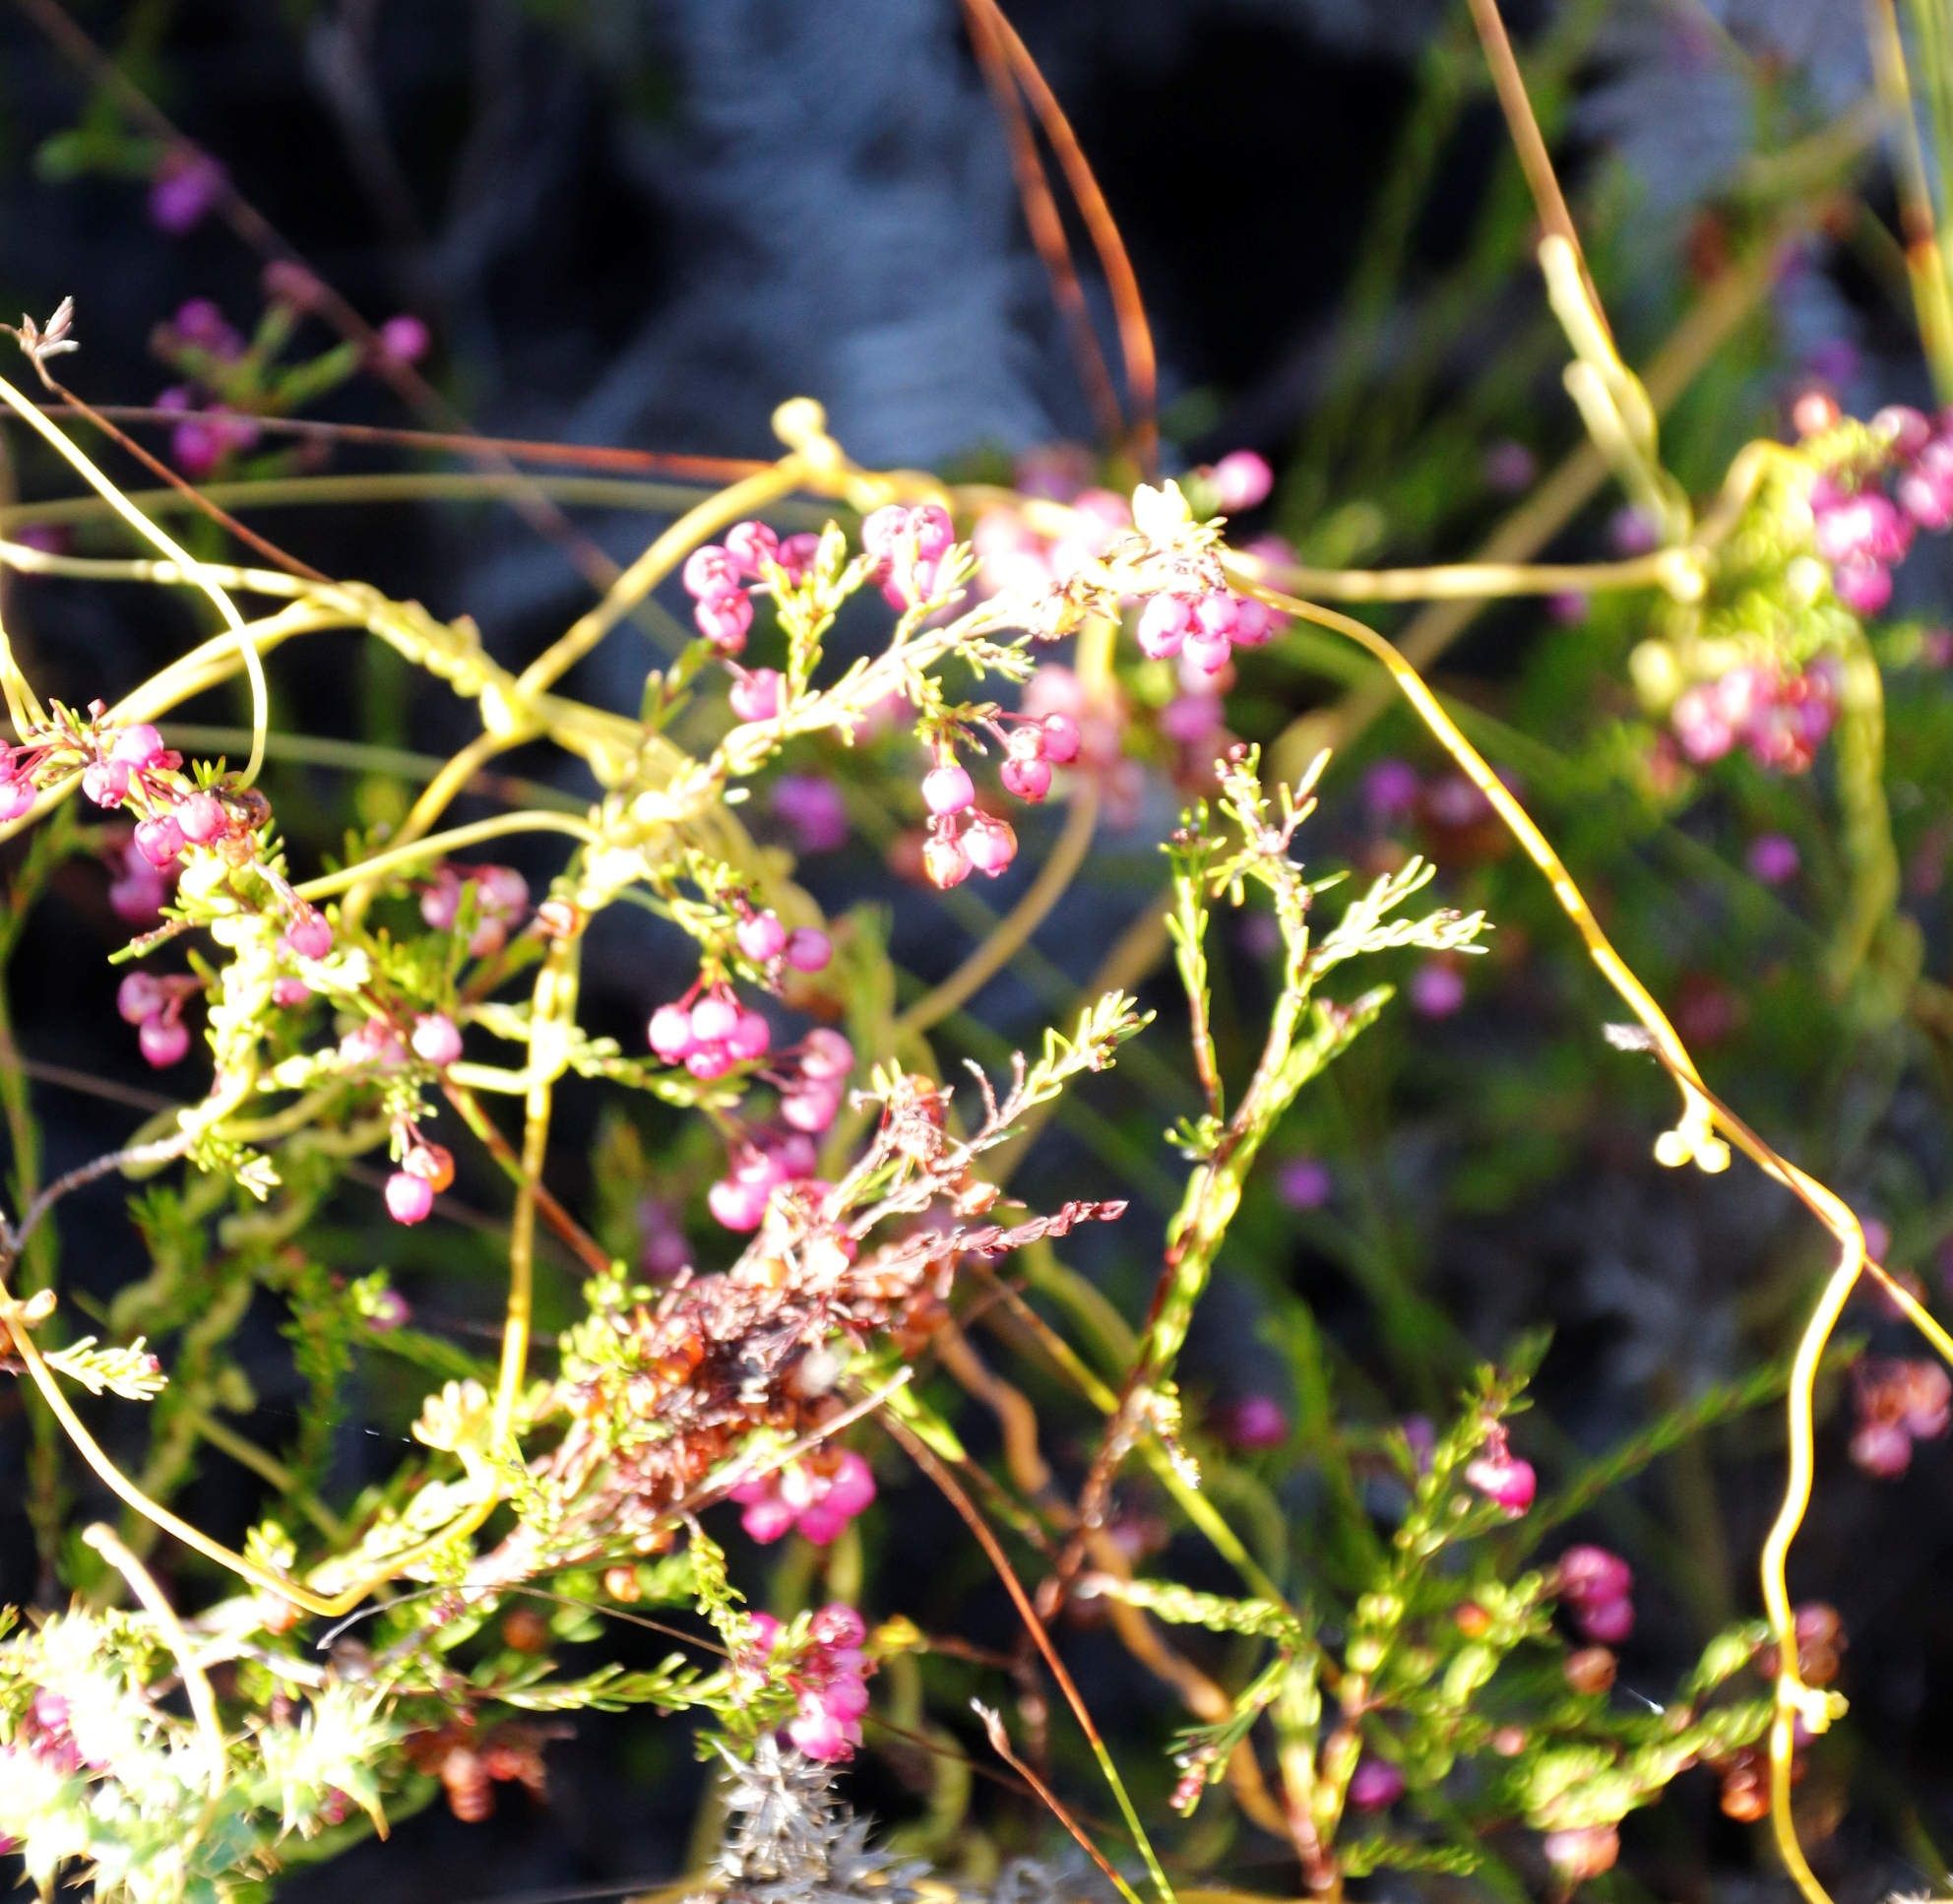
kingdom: Plantae
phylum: Tracheophyta
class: Magnoliopsida
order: Laurales
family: Lauraceae
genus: Cassytha
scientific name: Cassytha ciliolata
